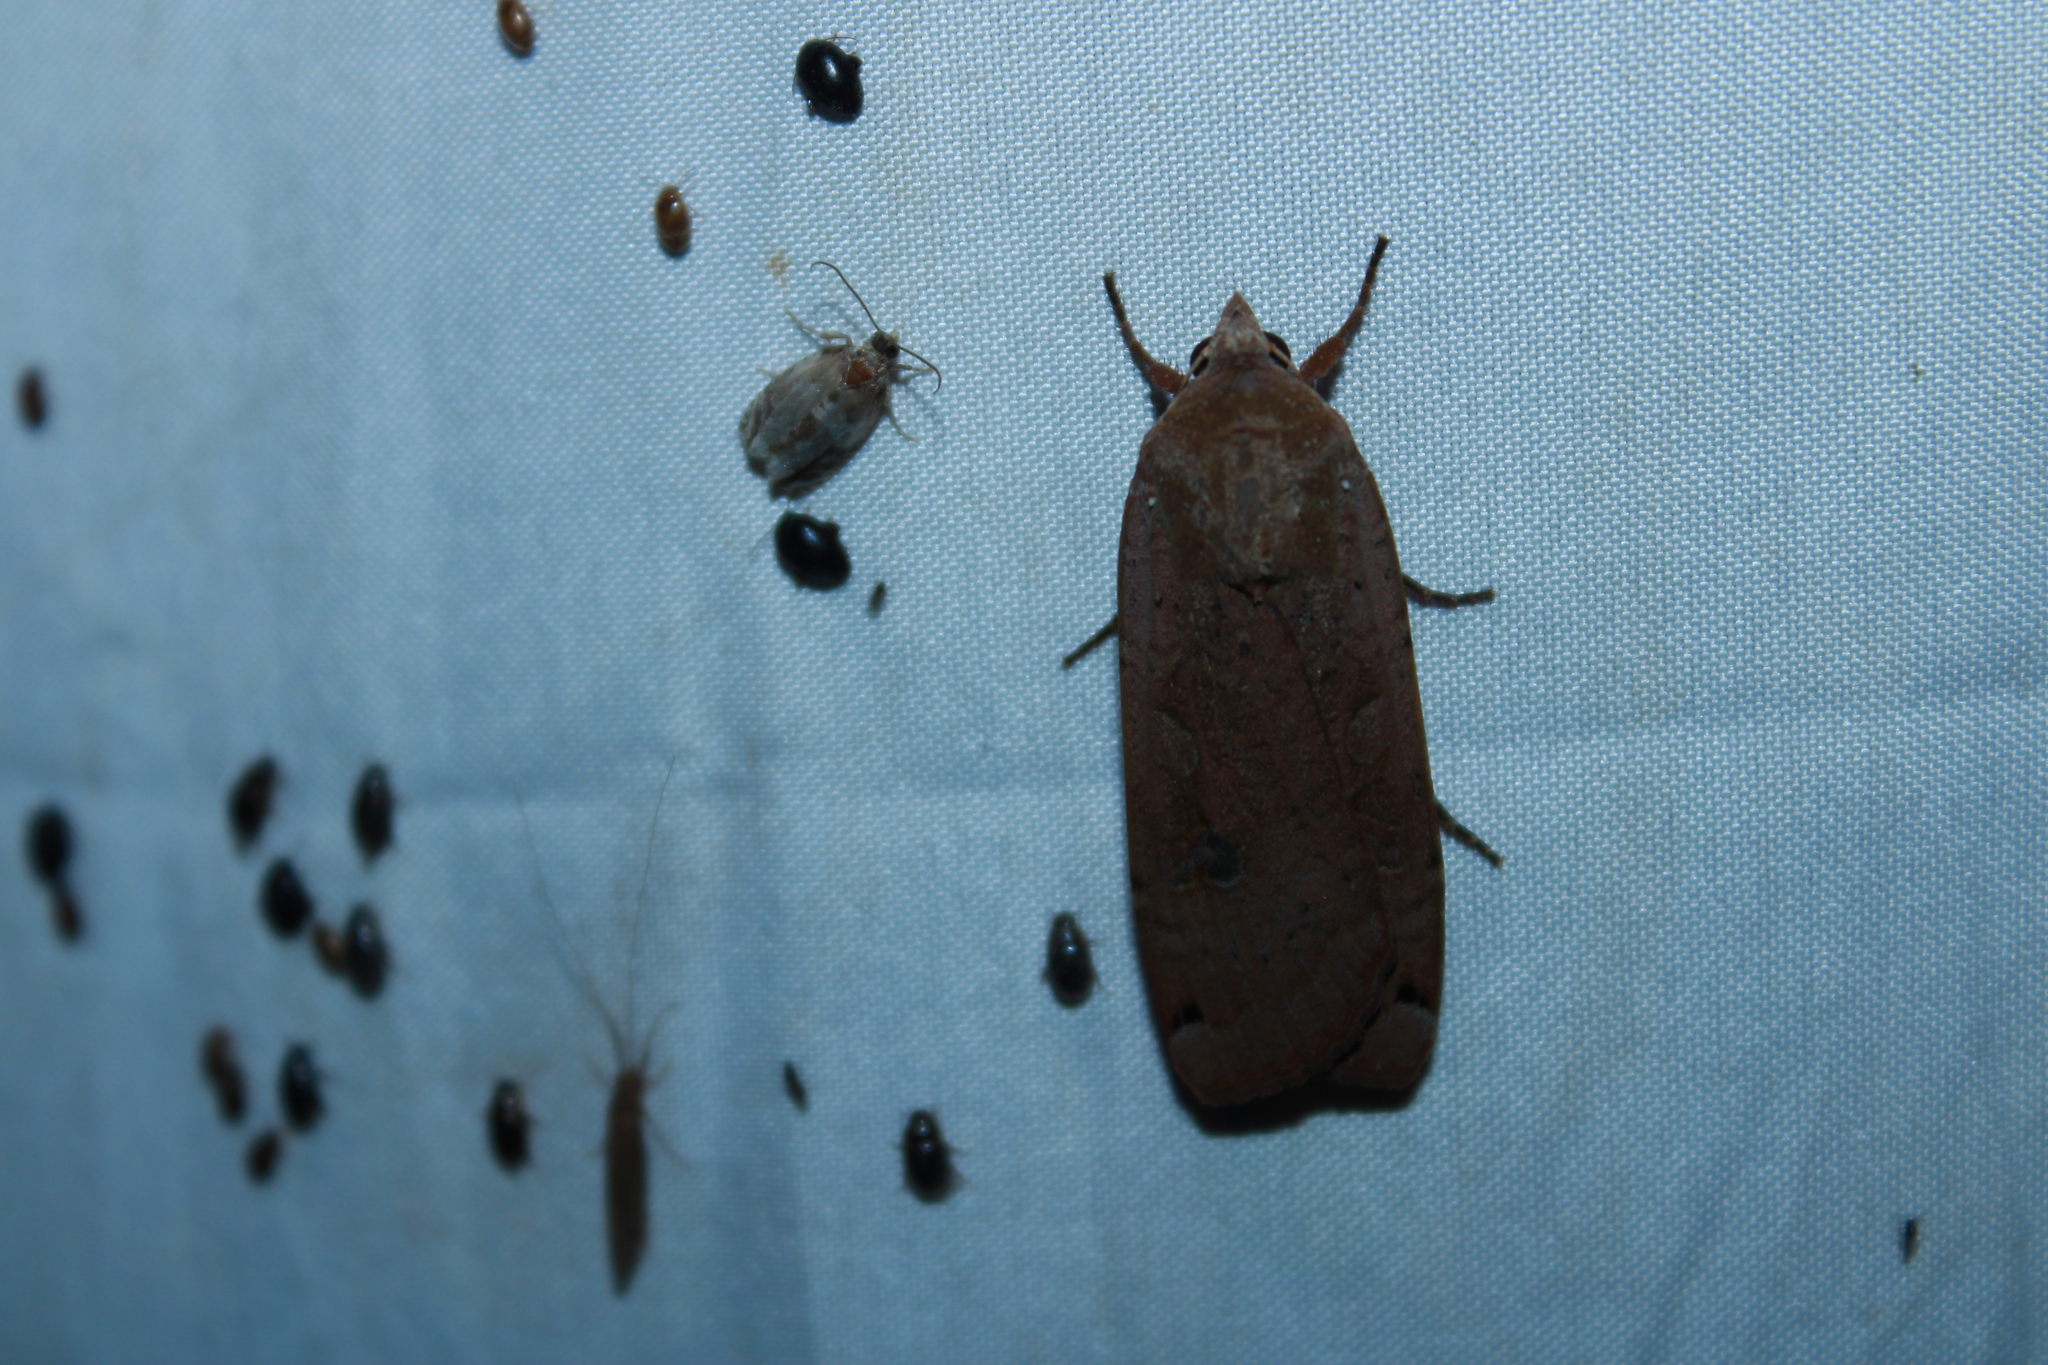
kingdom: Animalia
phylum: Arthropoda
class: Insecta
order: Lepidoptera
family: Noctuidae
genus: Noctua
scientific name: Noctua pronuba
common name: Large yellow underwing
